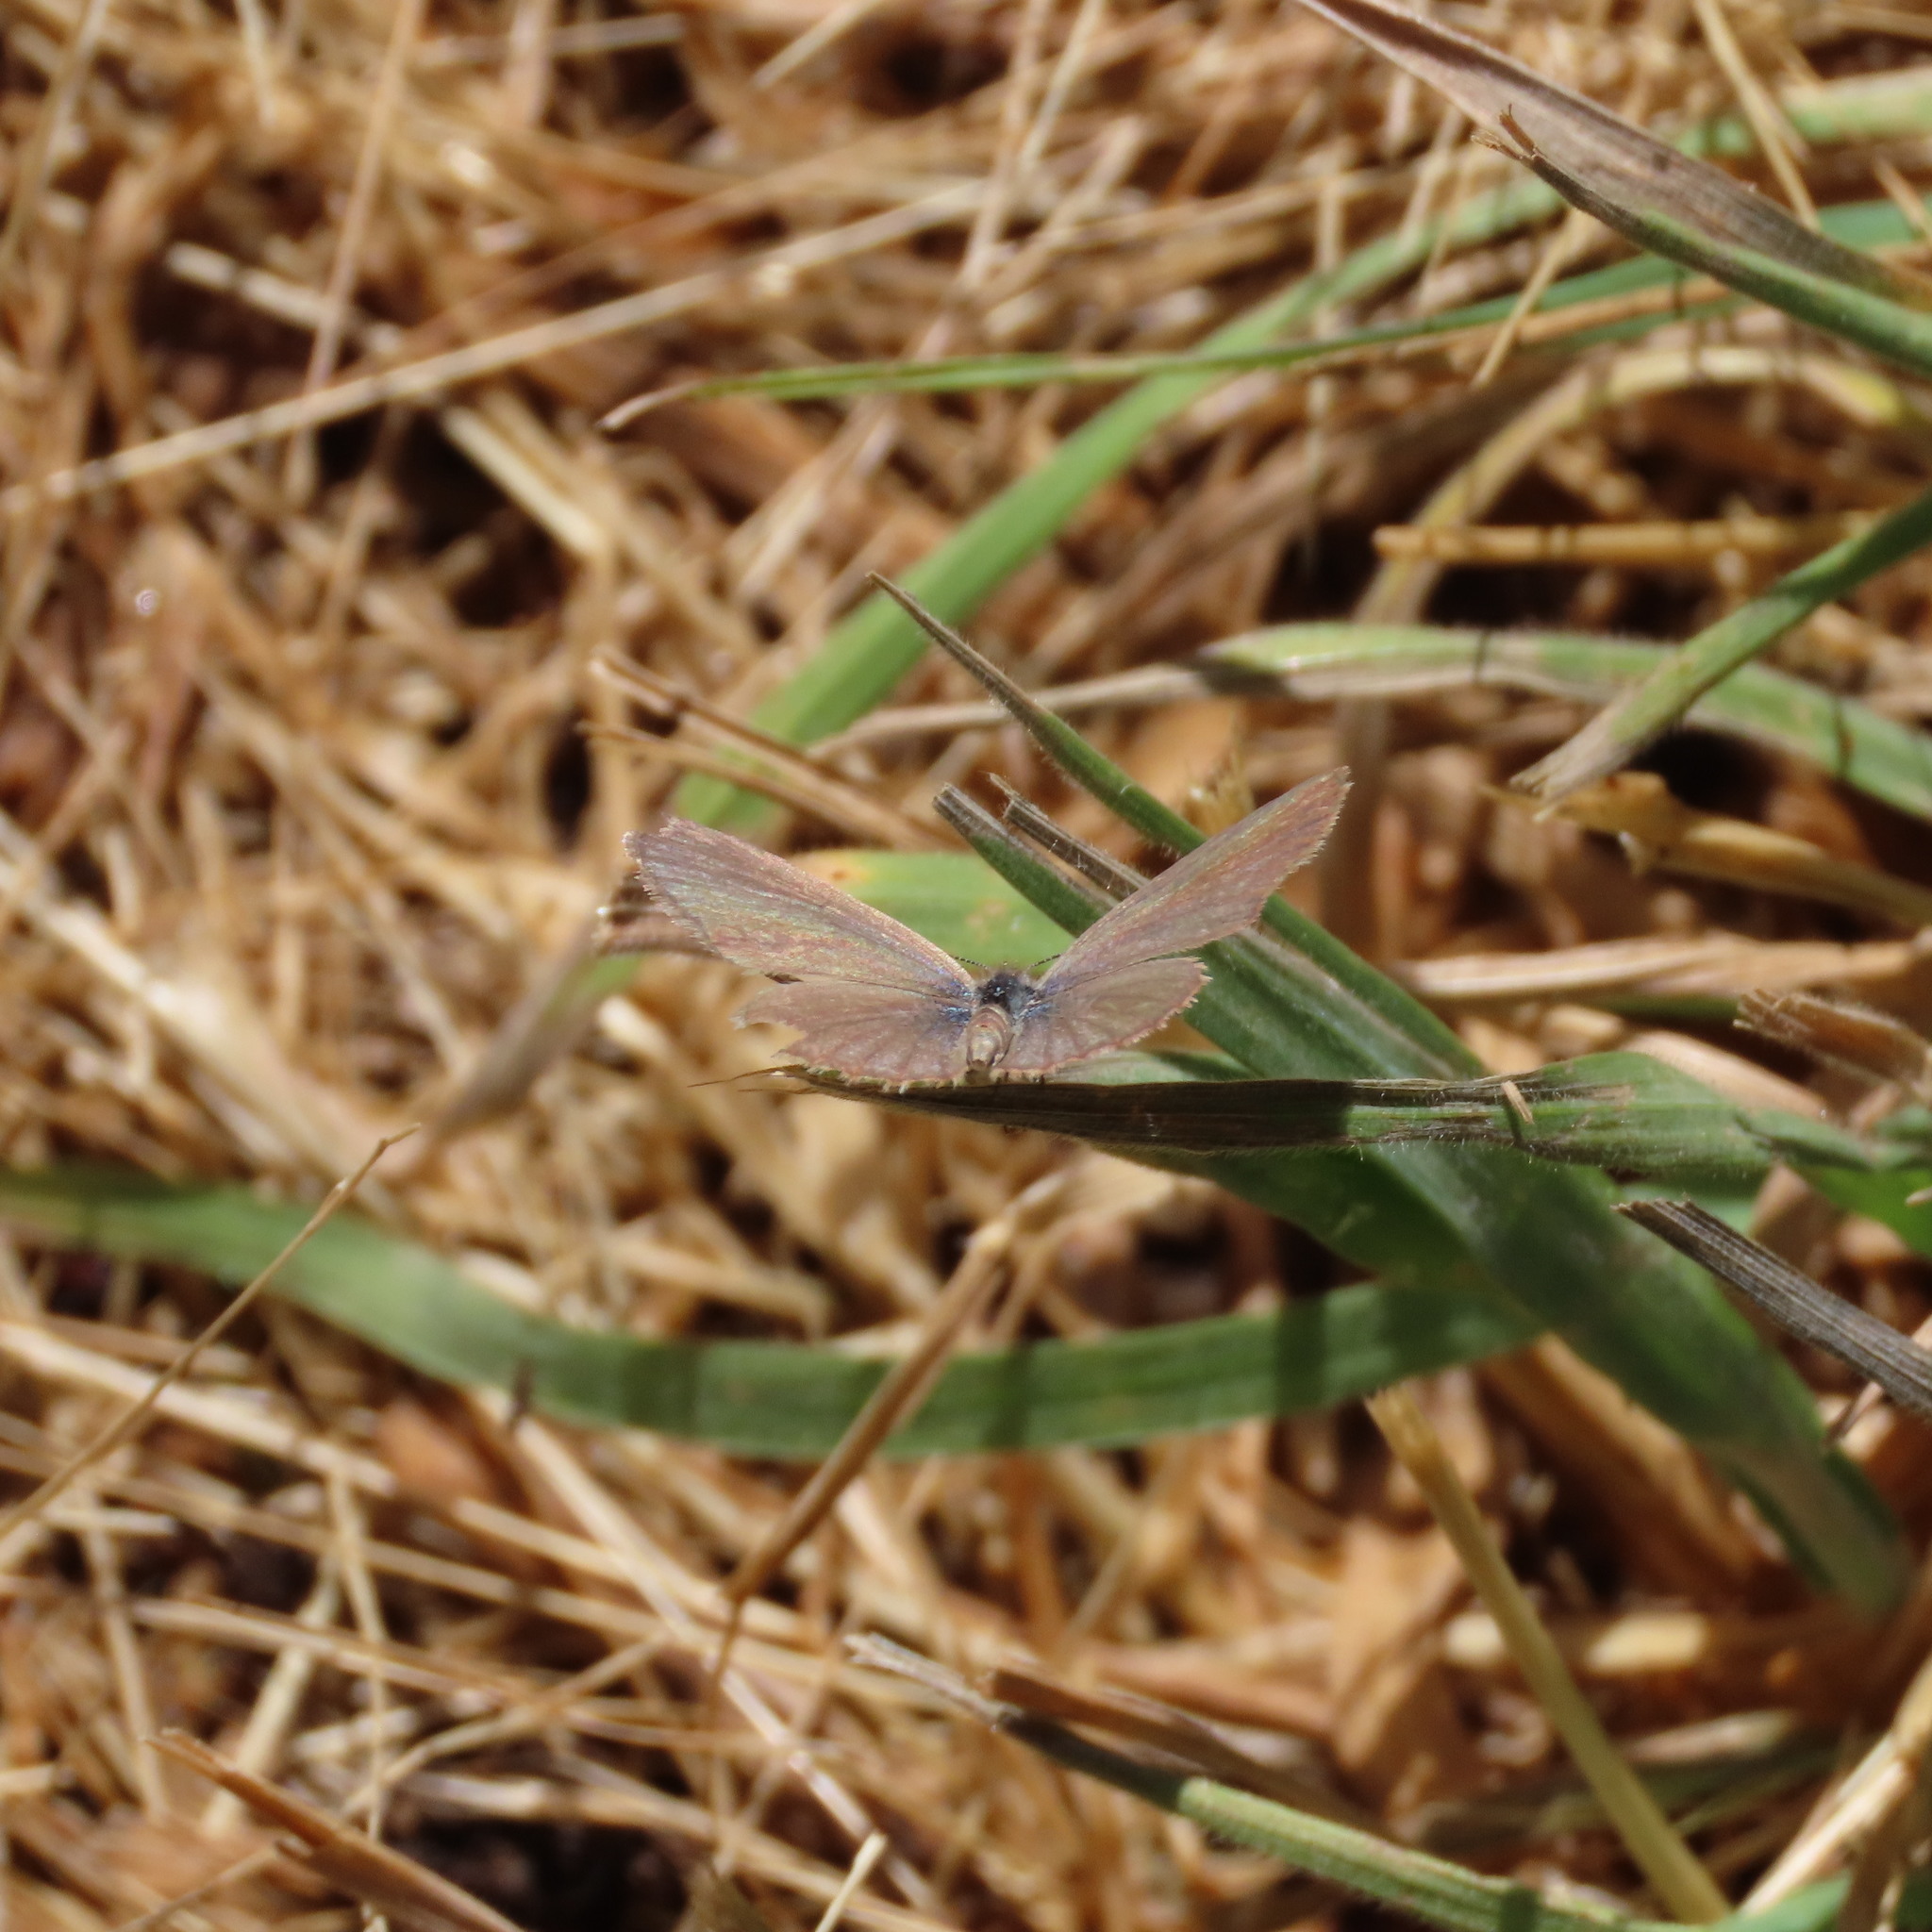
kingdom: Animalia
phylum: Arthropoda
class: Insecta
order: Lepidoptera
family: Lycaenidae
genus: Zizina
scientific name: Zizina otis
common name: Lesser grass blue
